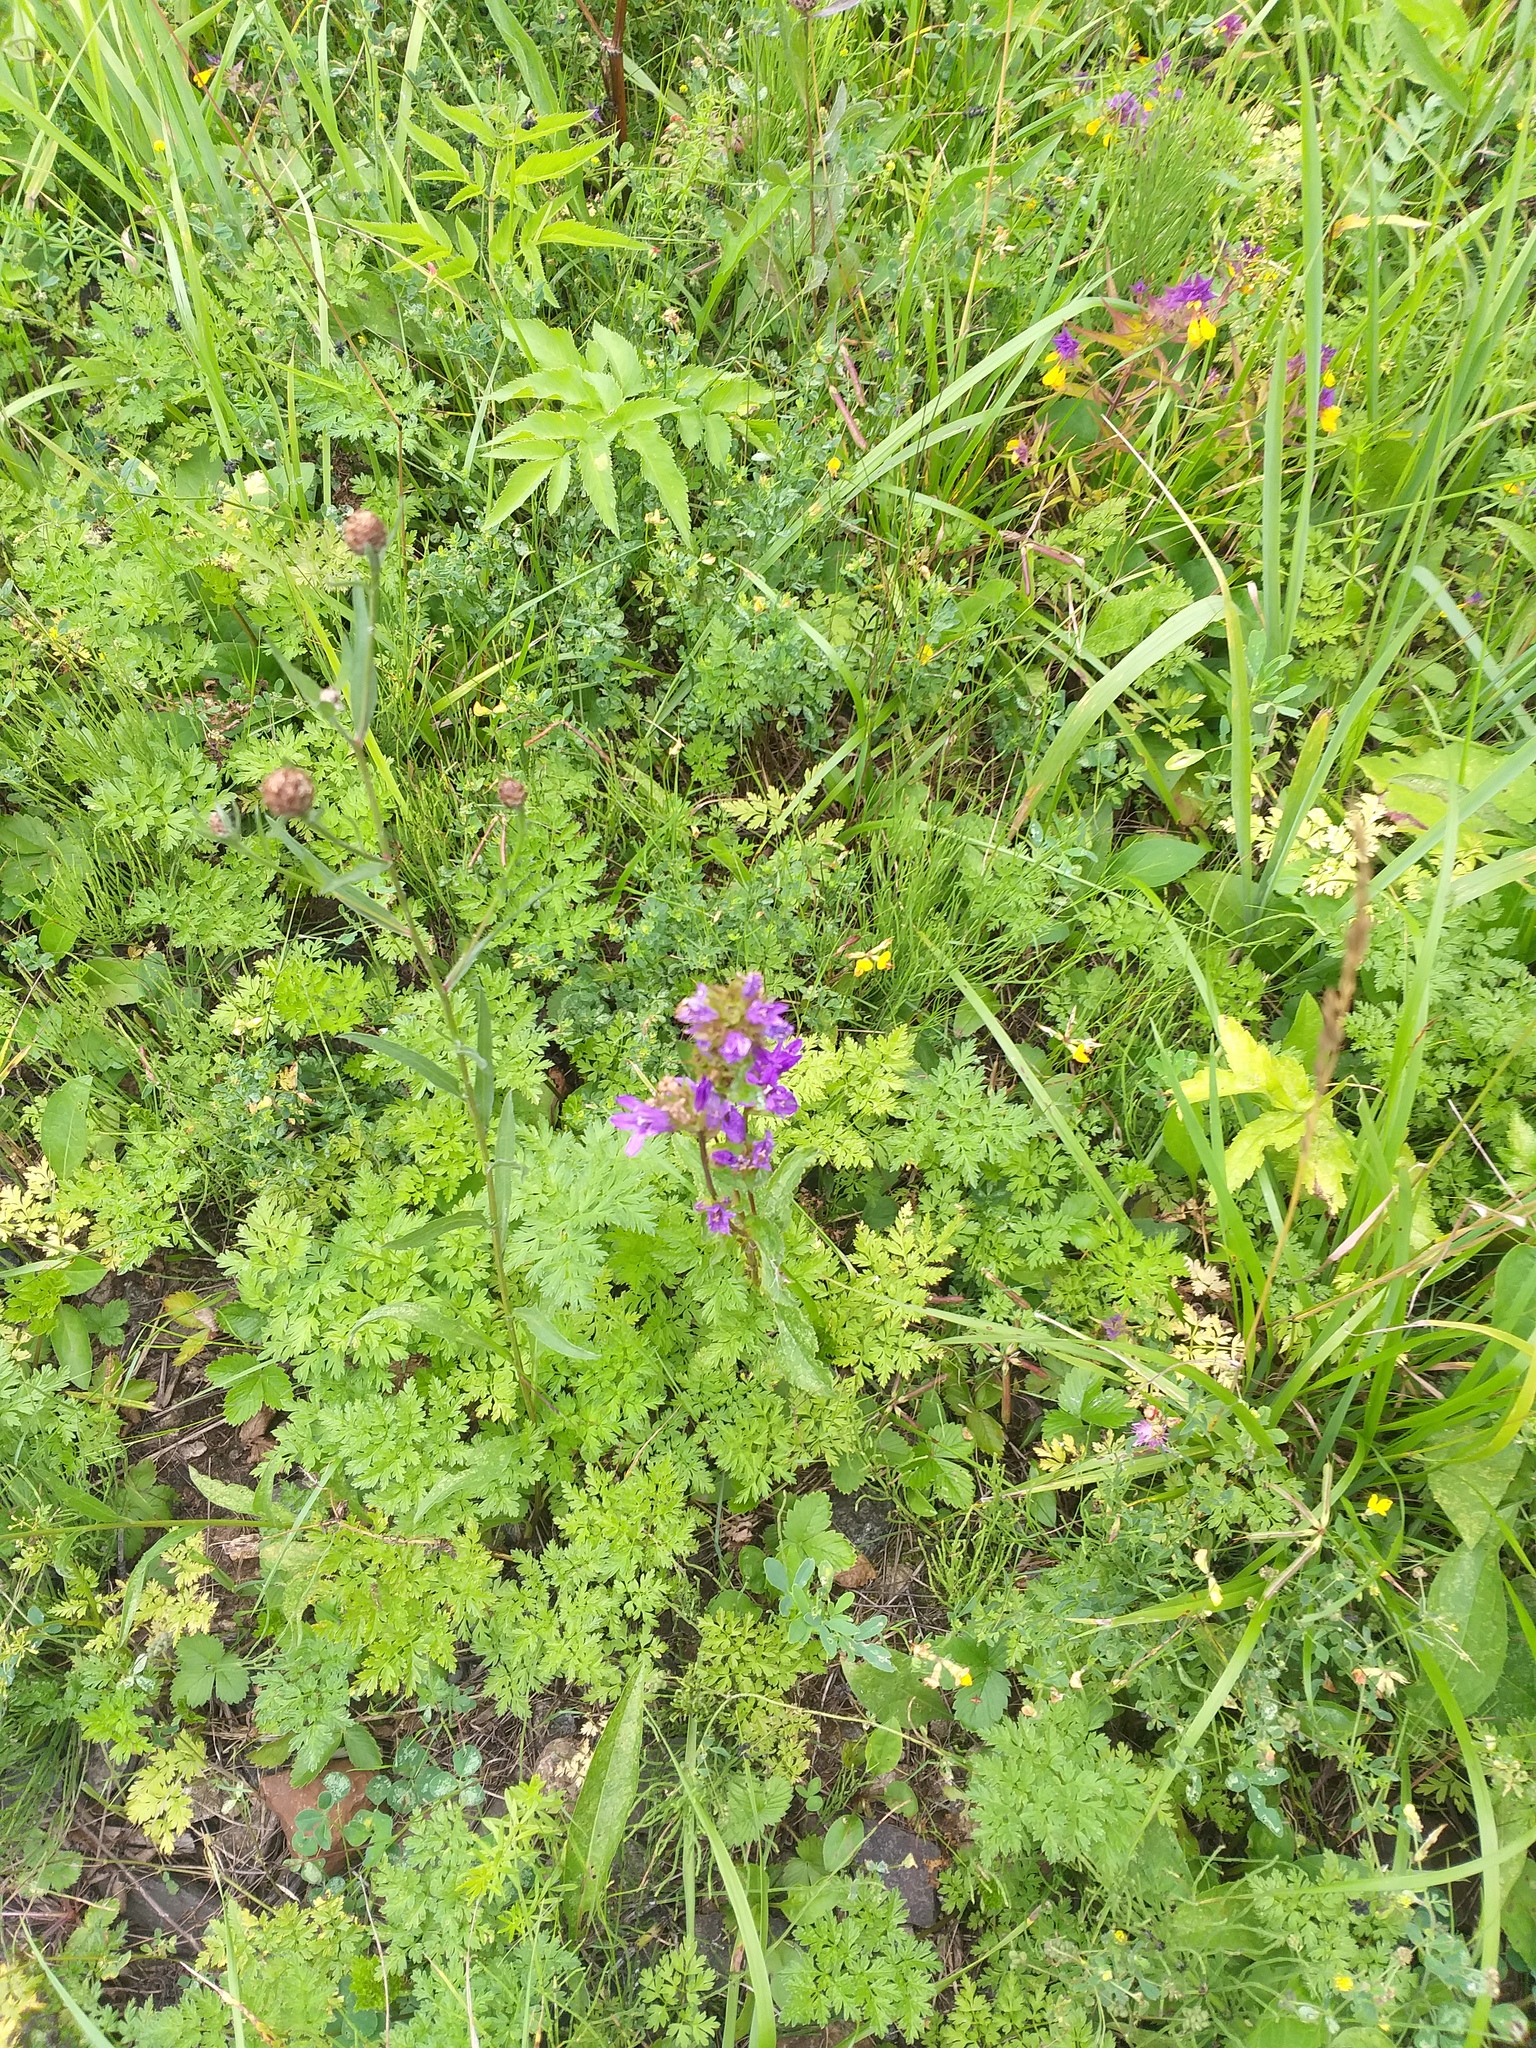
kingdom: Plantae
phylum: Tracheophyta
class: Magnoliopsida
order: Apiales
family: Apiaceae
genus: Anthriscus
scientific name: Anthriscus sylvestris
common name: Cow parsley
